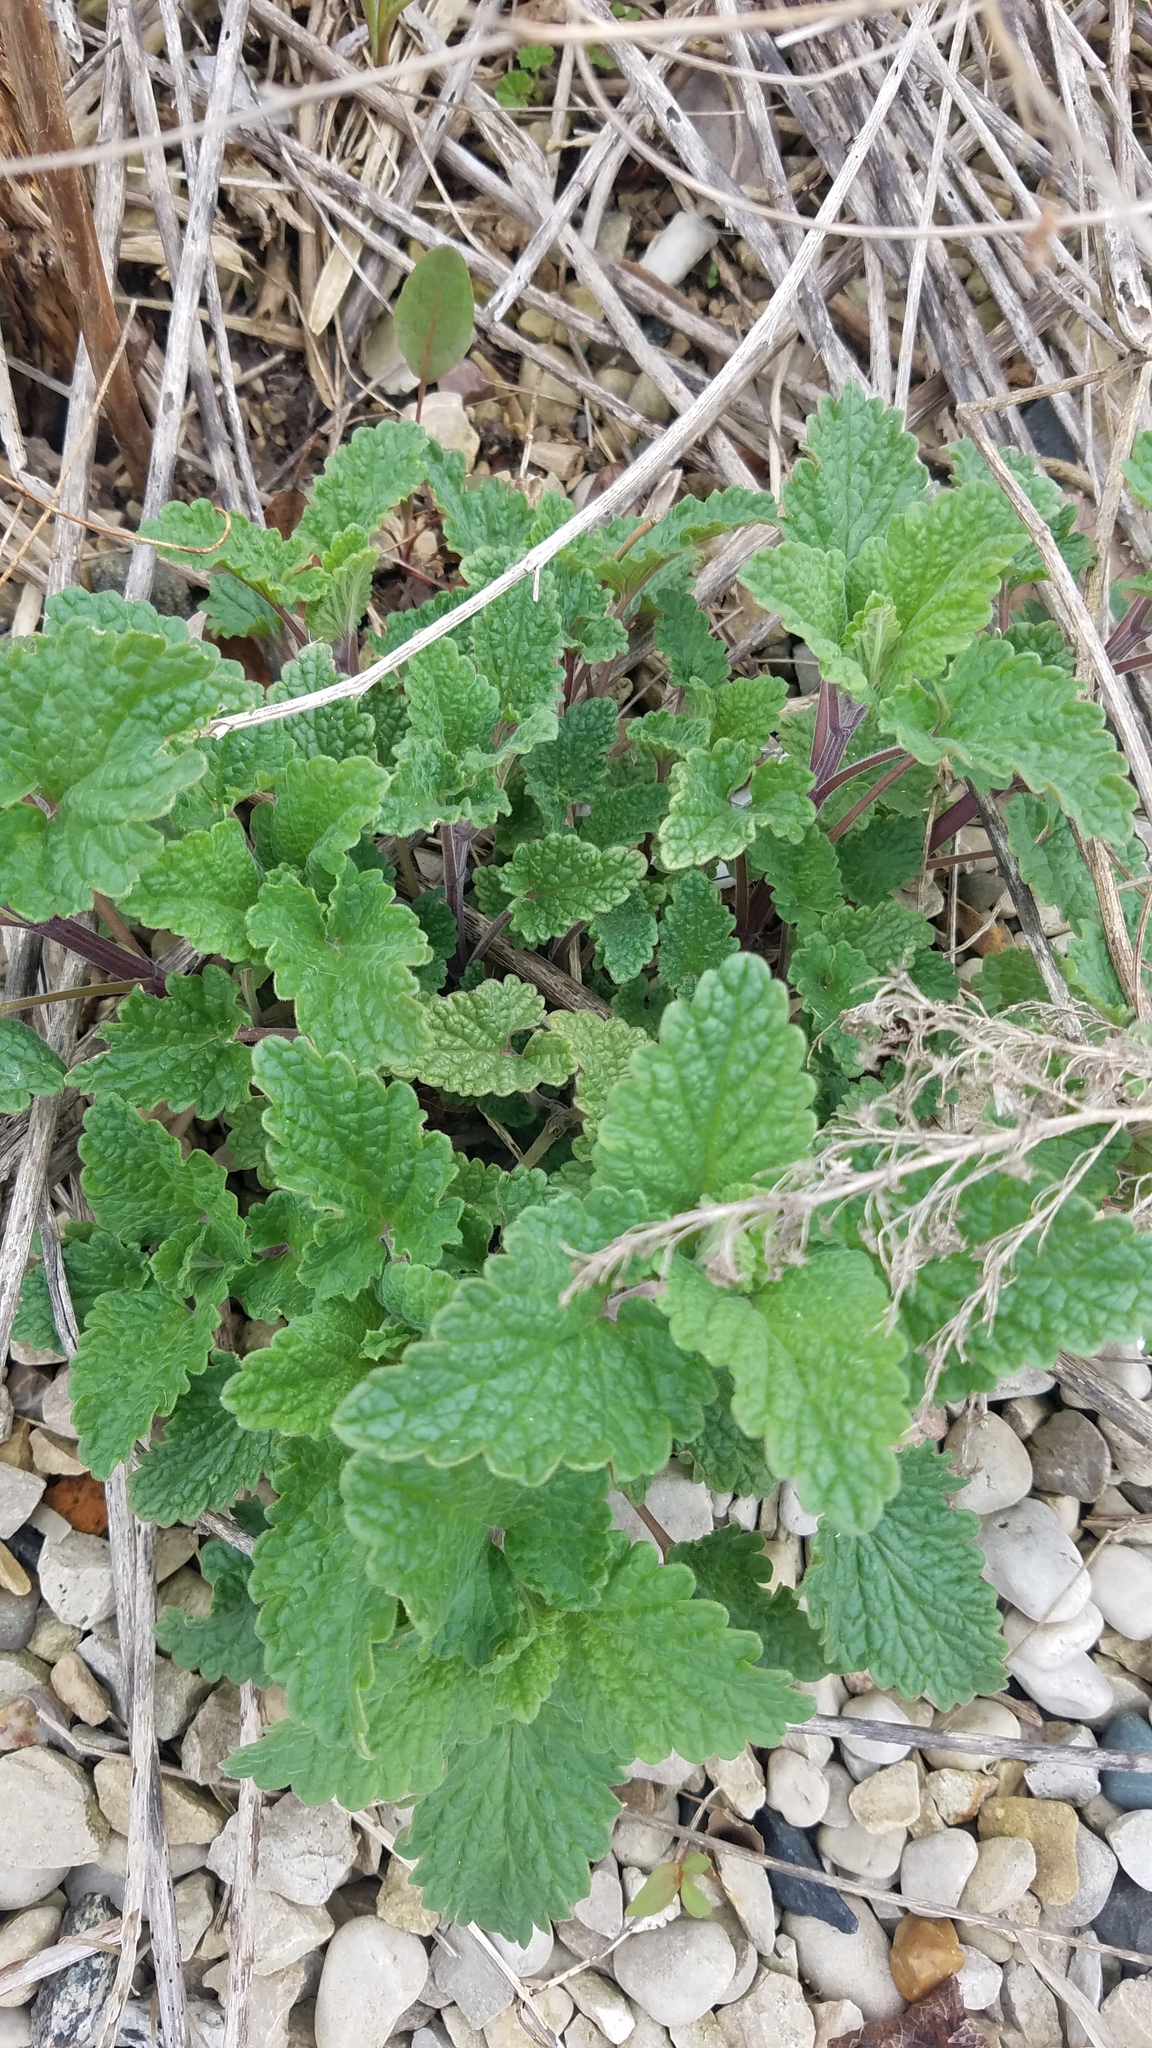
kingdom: Plantae
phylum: Tracheophyta
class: Magnoliopsida
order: Lamiales
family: Lamiaceae
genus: Nepeta
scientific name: Nepeta cataria
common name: Catnip
